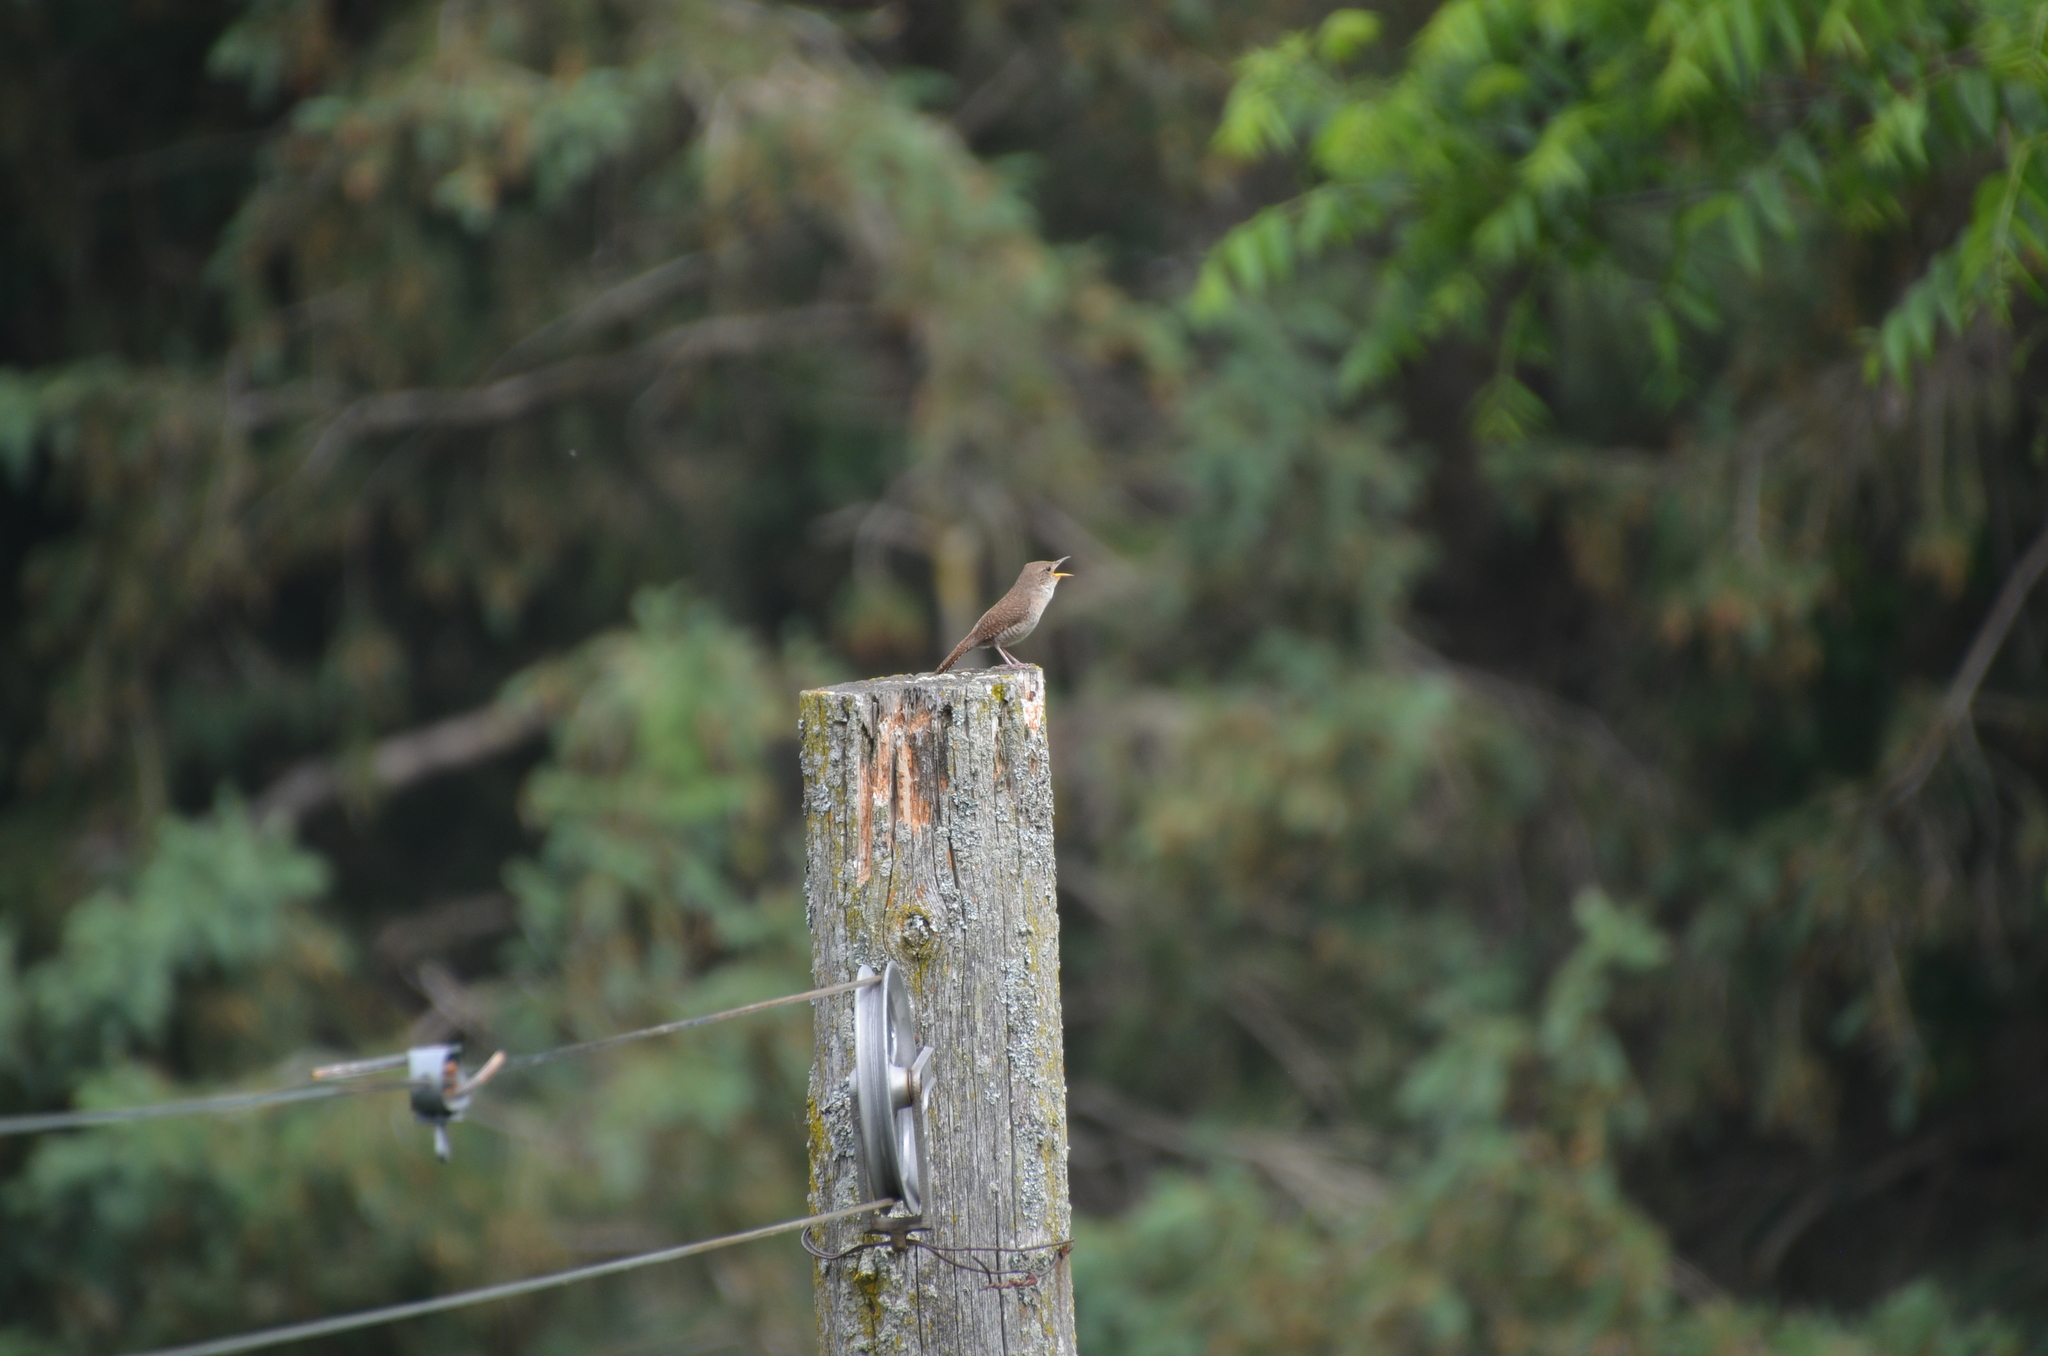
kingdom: Animalia
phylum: Chordata
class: Aves
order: Passeriformes
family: Troglodytidae
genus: Troglodytes
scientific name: Troglodytes aedon
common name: House wren
